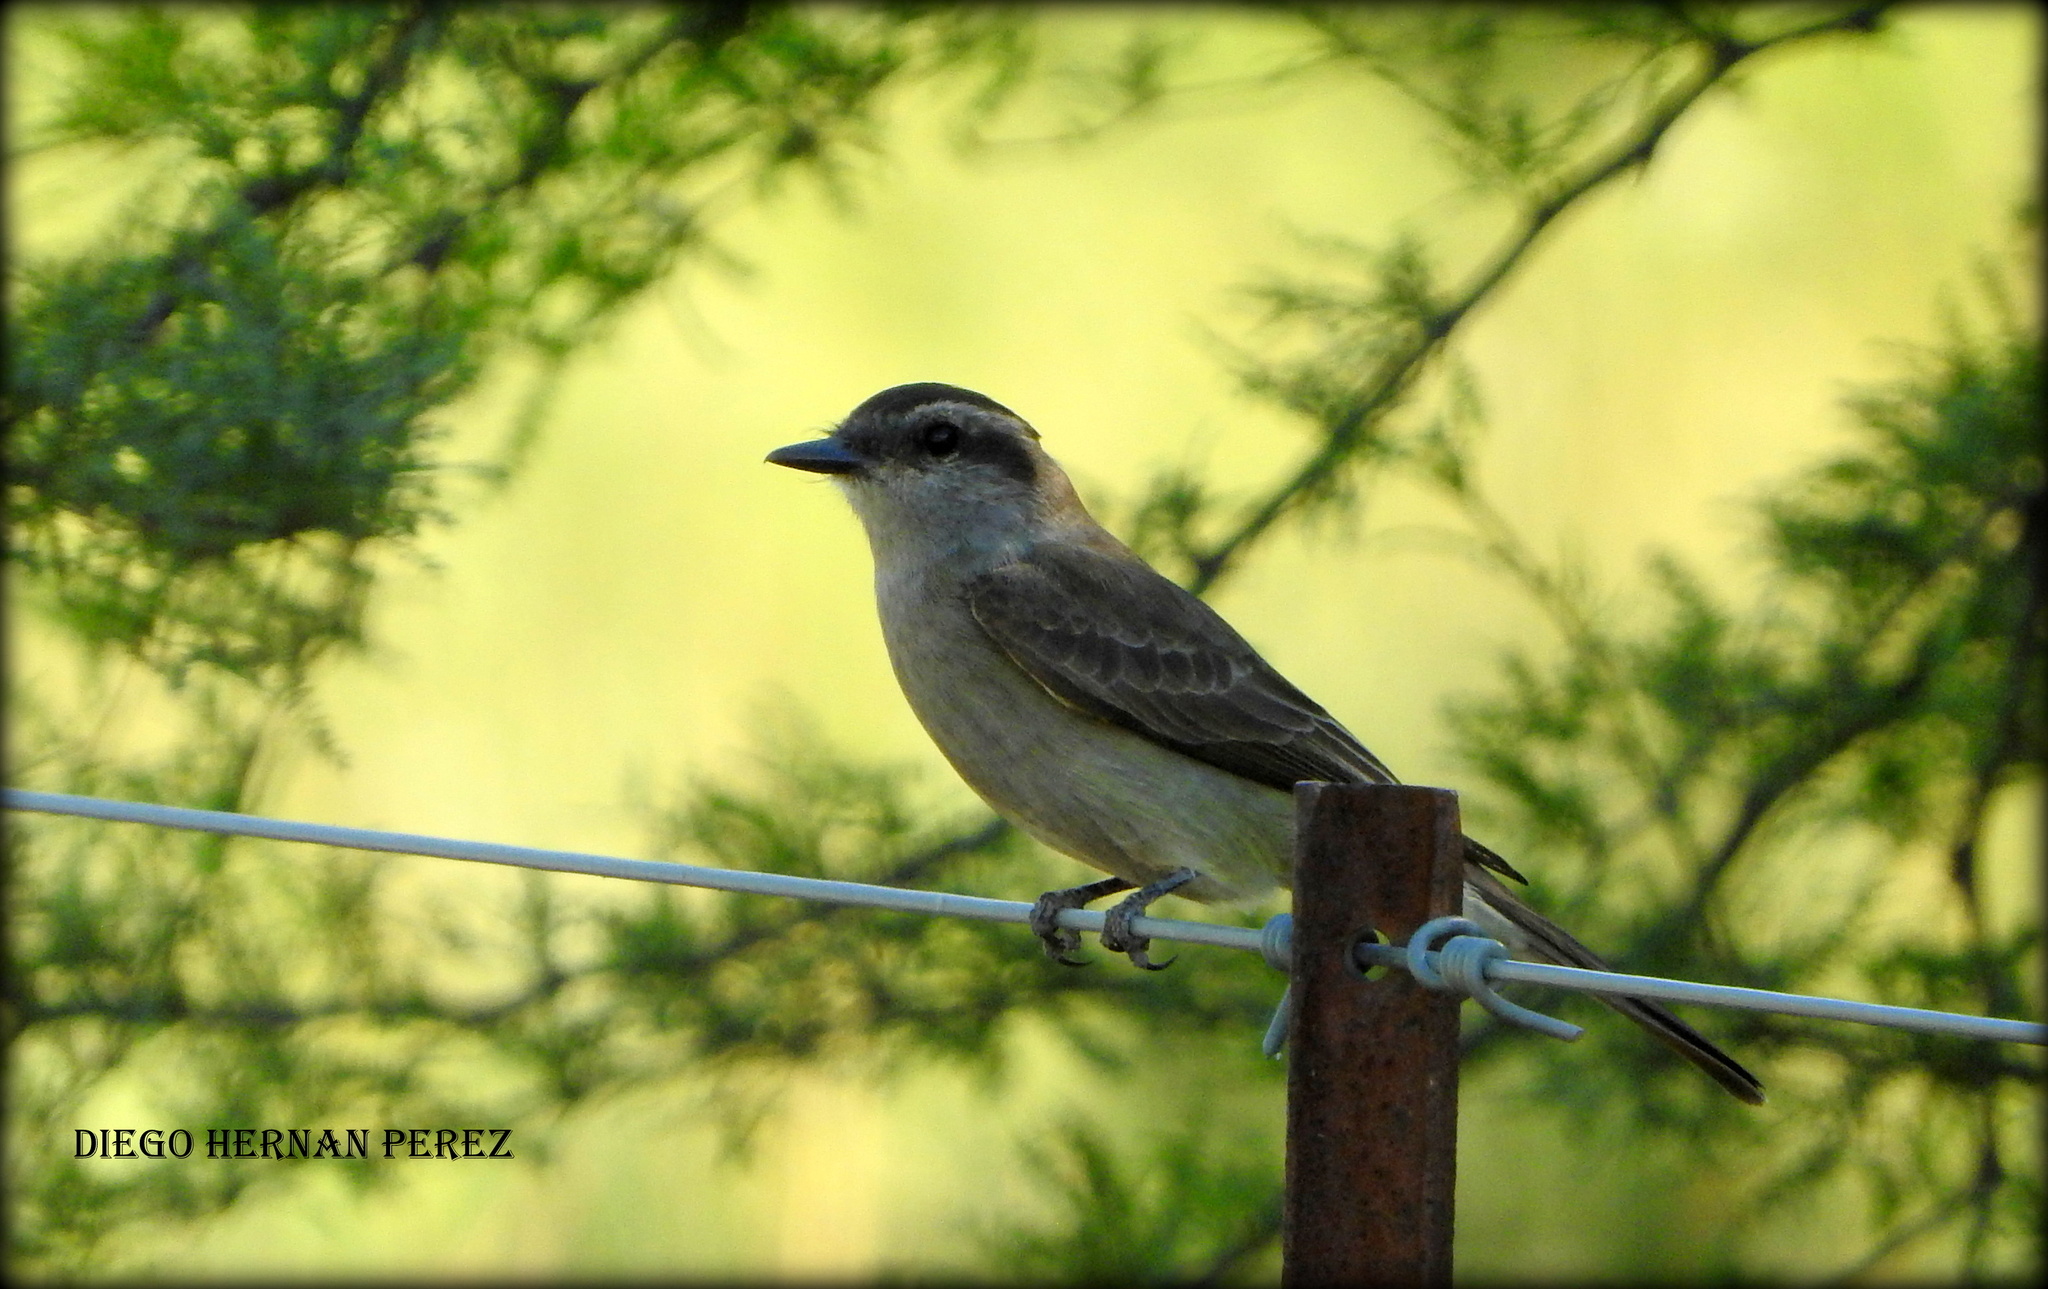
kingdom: Animalia
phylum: Chordata
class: Aves
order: Passeriformes
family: Tyrannidae
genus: Empidonomus
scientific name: Empidonomus aurantioatrocristatus
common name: Crowned slaty flycatcher
